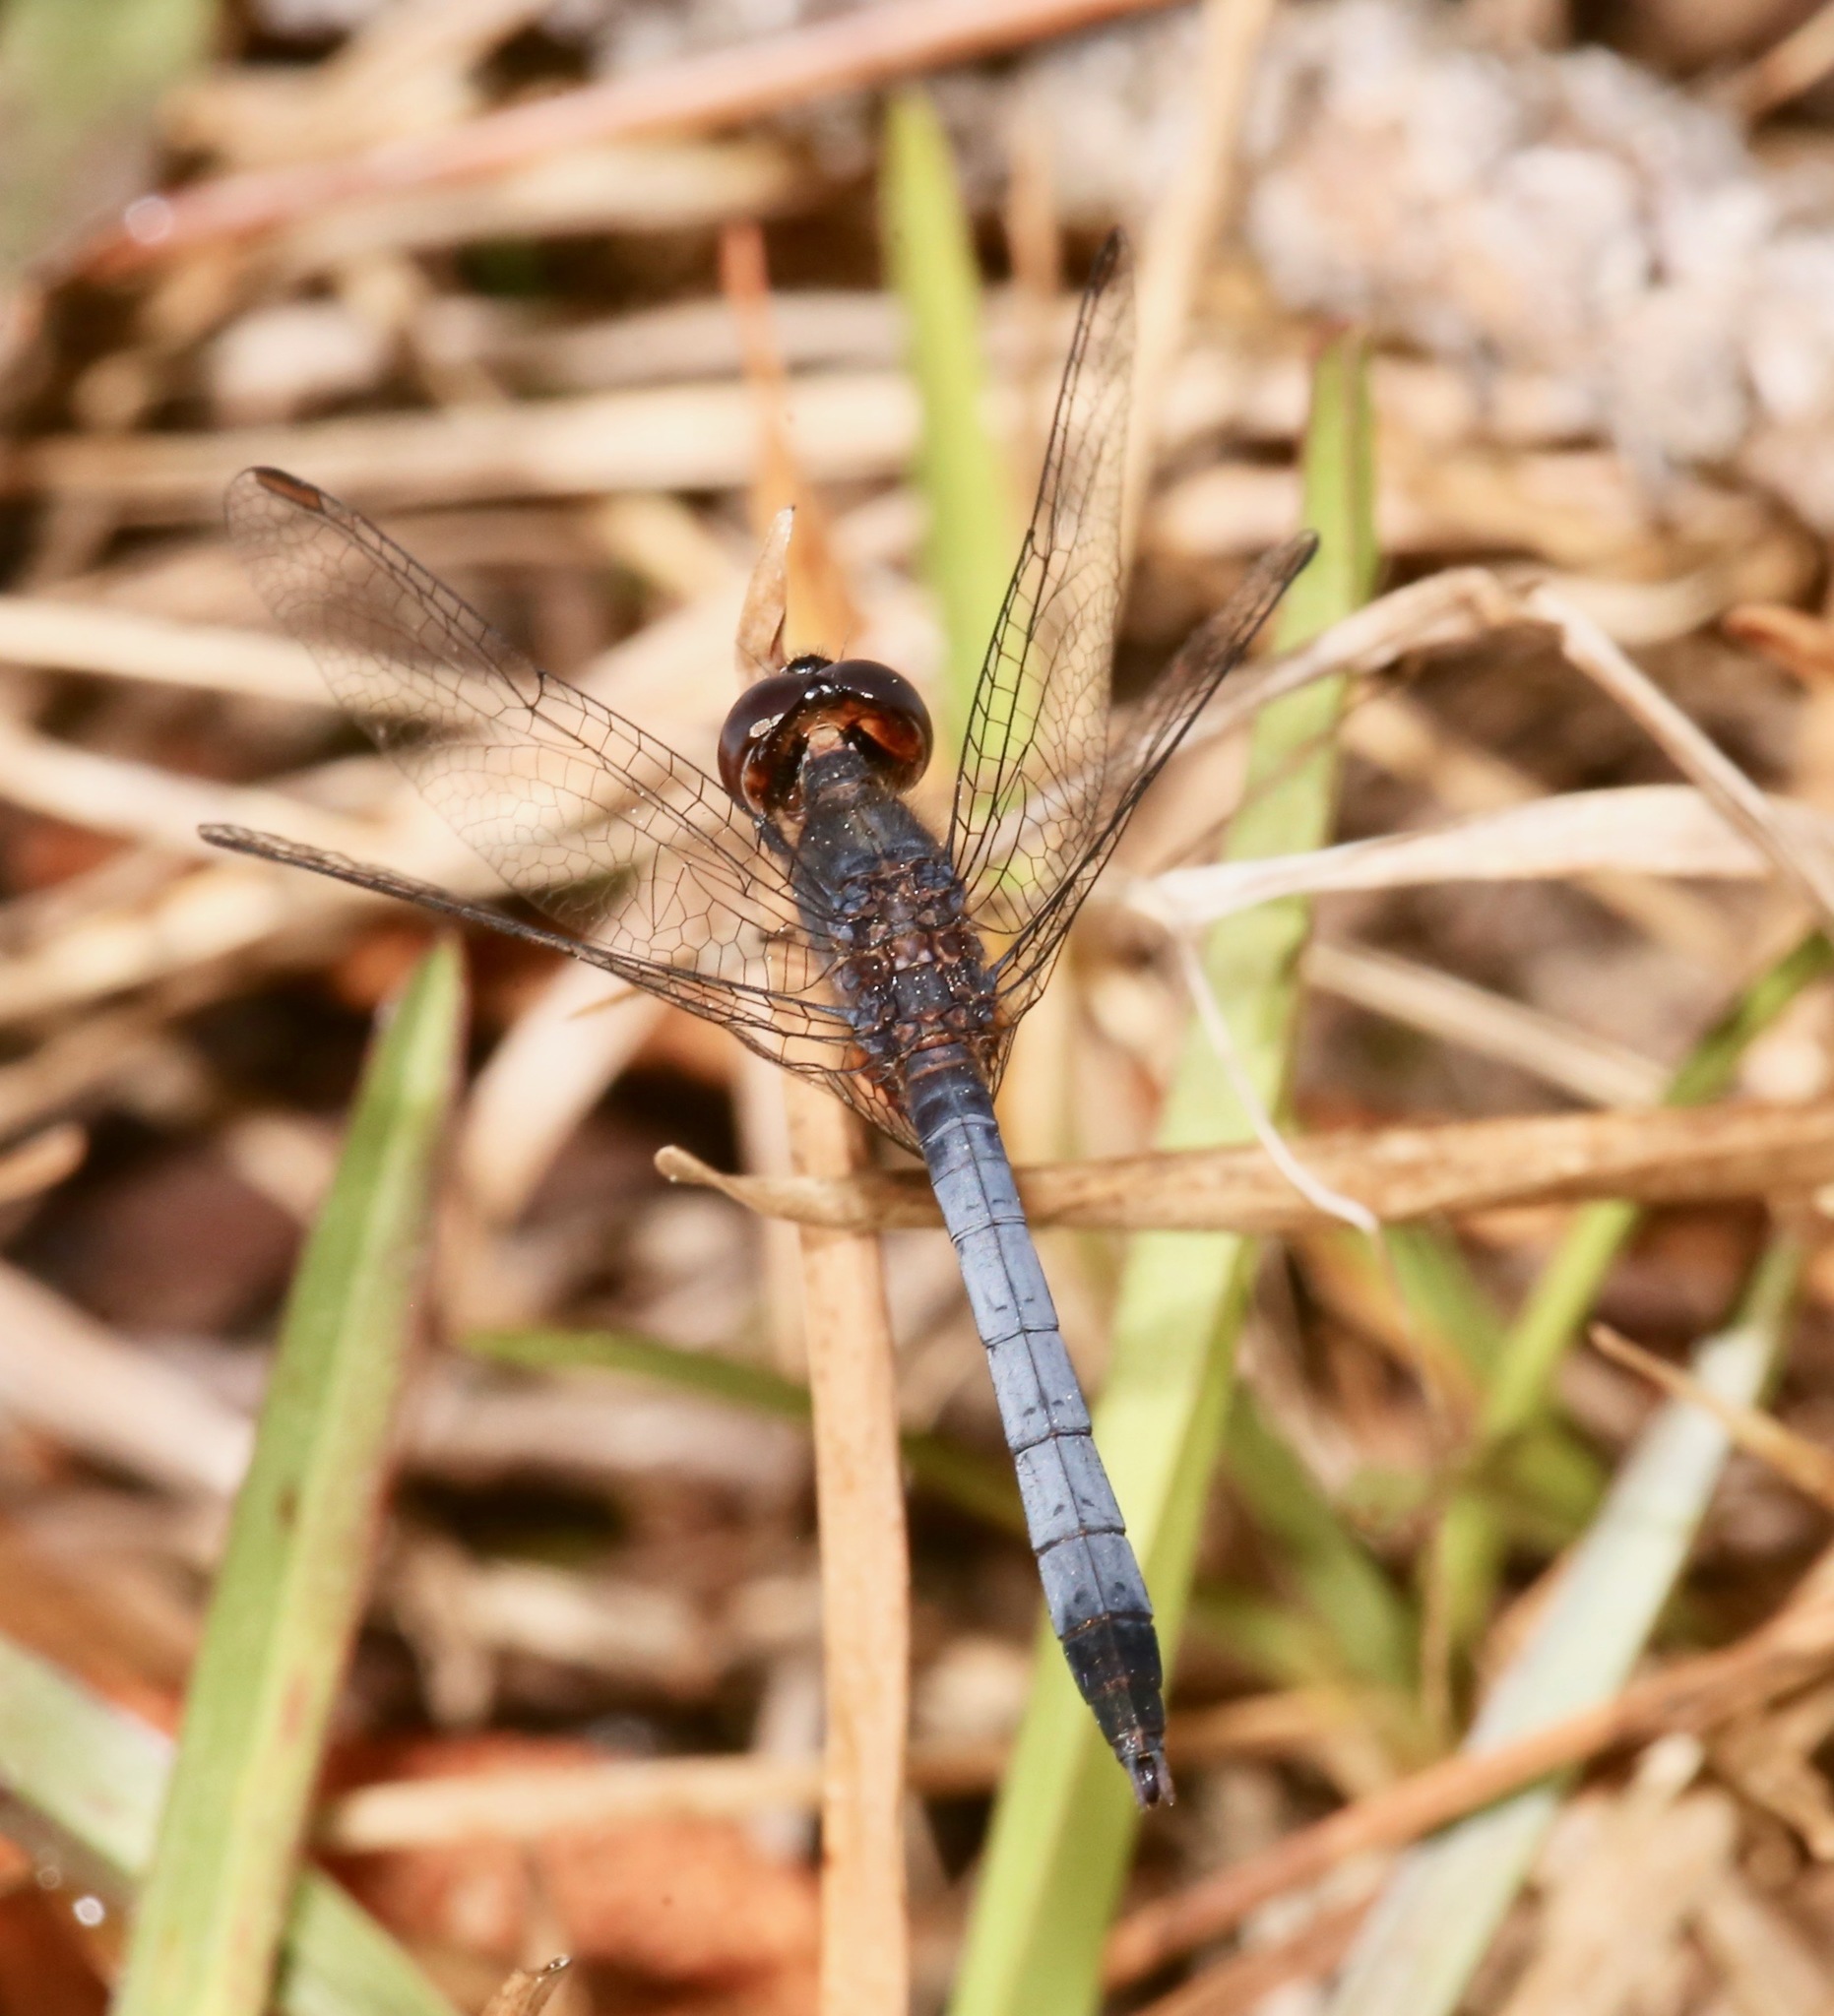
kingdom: Animalia
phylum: Arthropoda
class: Insecta
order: Odonata
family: Libellulidae
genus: Erythrodiplax
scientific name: Erythrodiplax minuscula
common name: Little blue dragonlet
